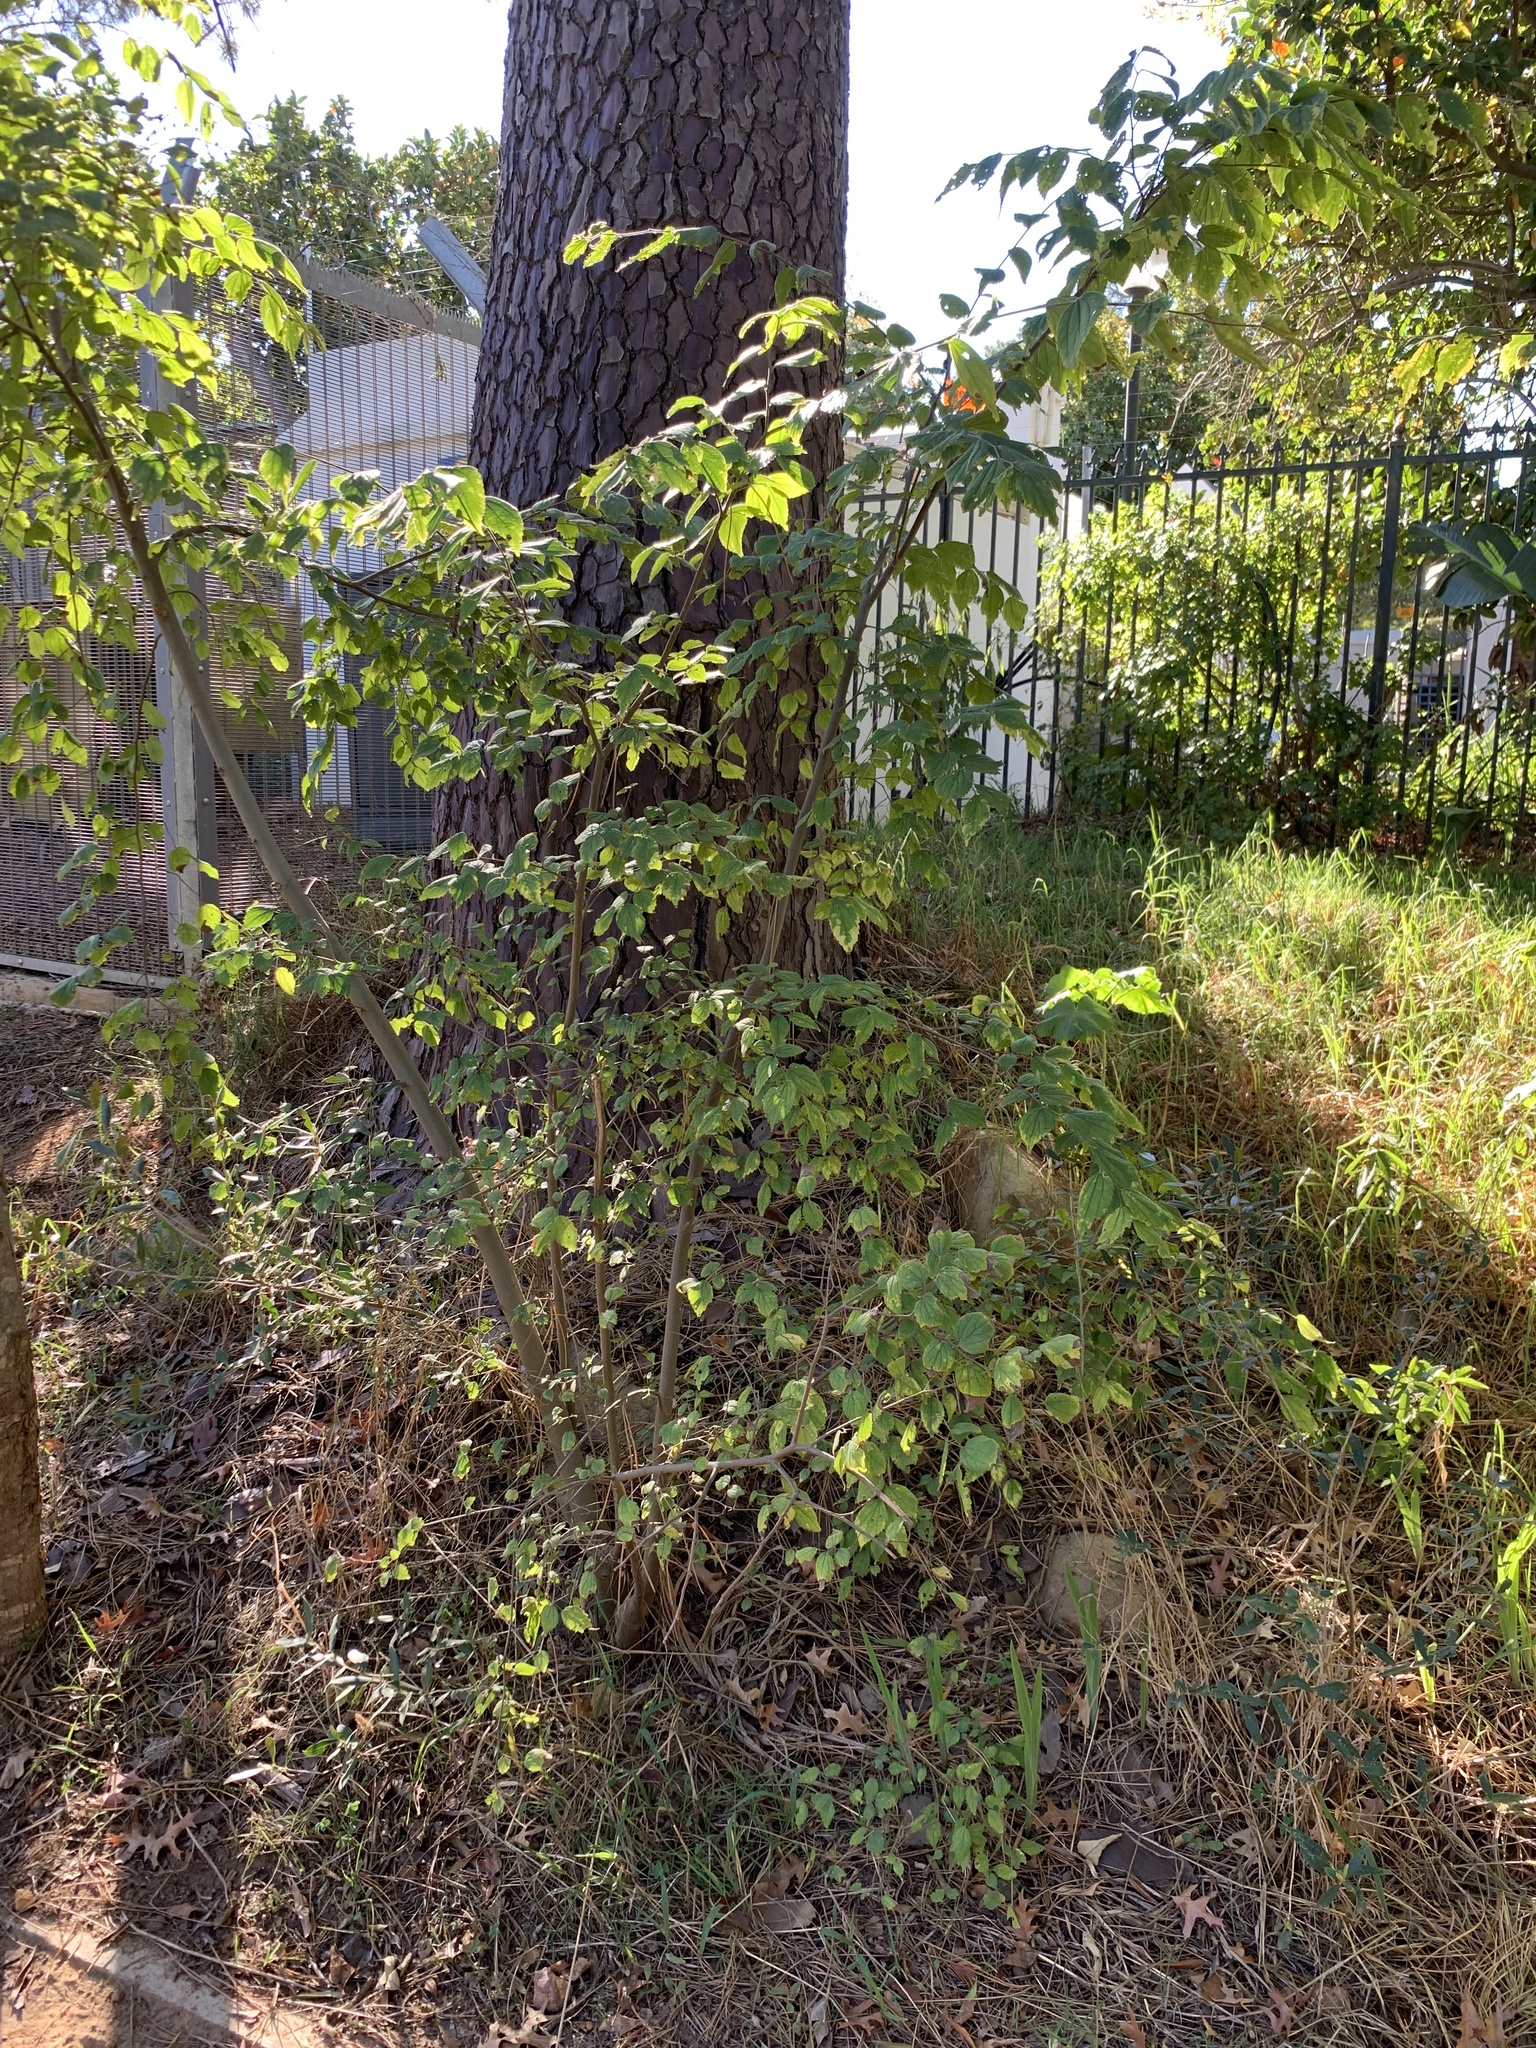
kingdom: Plantae
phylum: Tracheophyta
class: Magnoliopsida
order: Rosales
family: Cannabaceae
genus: Celtis
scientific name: Celtis sinensis
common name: Chinese hackberry
